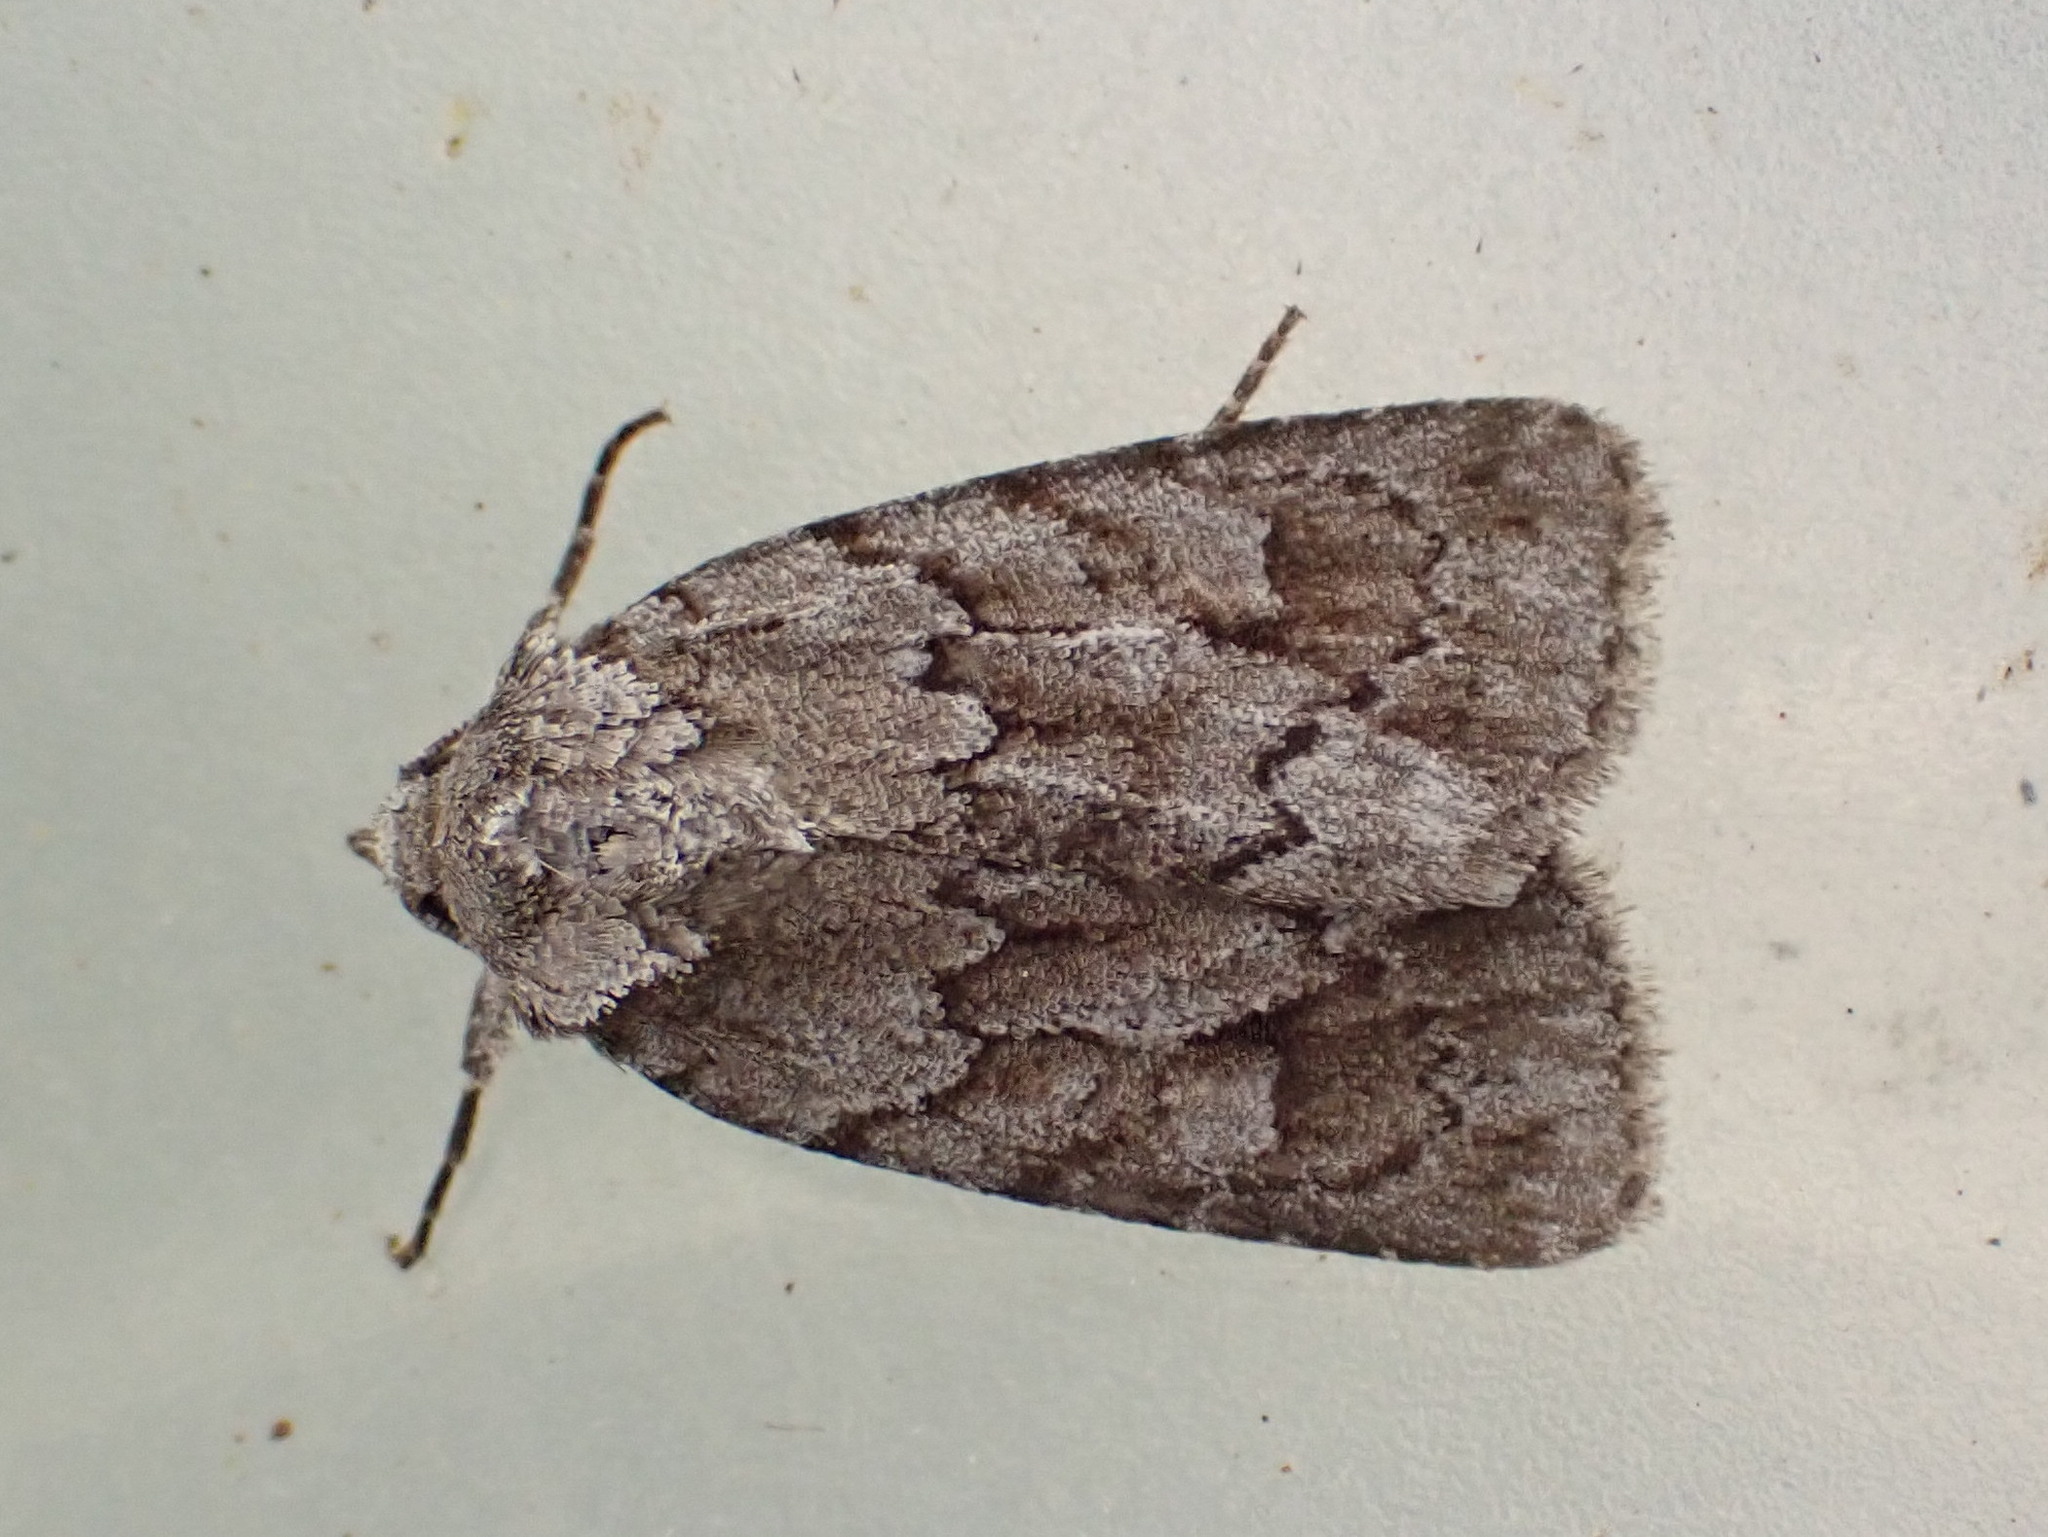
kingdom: Animalia
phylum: Arthropoda
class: Insecta
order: Lepidoptera
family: Noctuidae
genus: Sympistis
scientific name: Sympistis dentata
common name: Blueberry sallow
